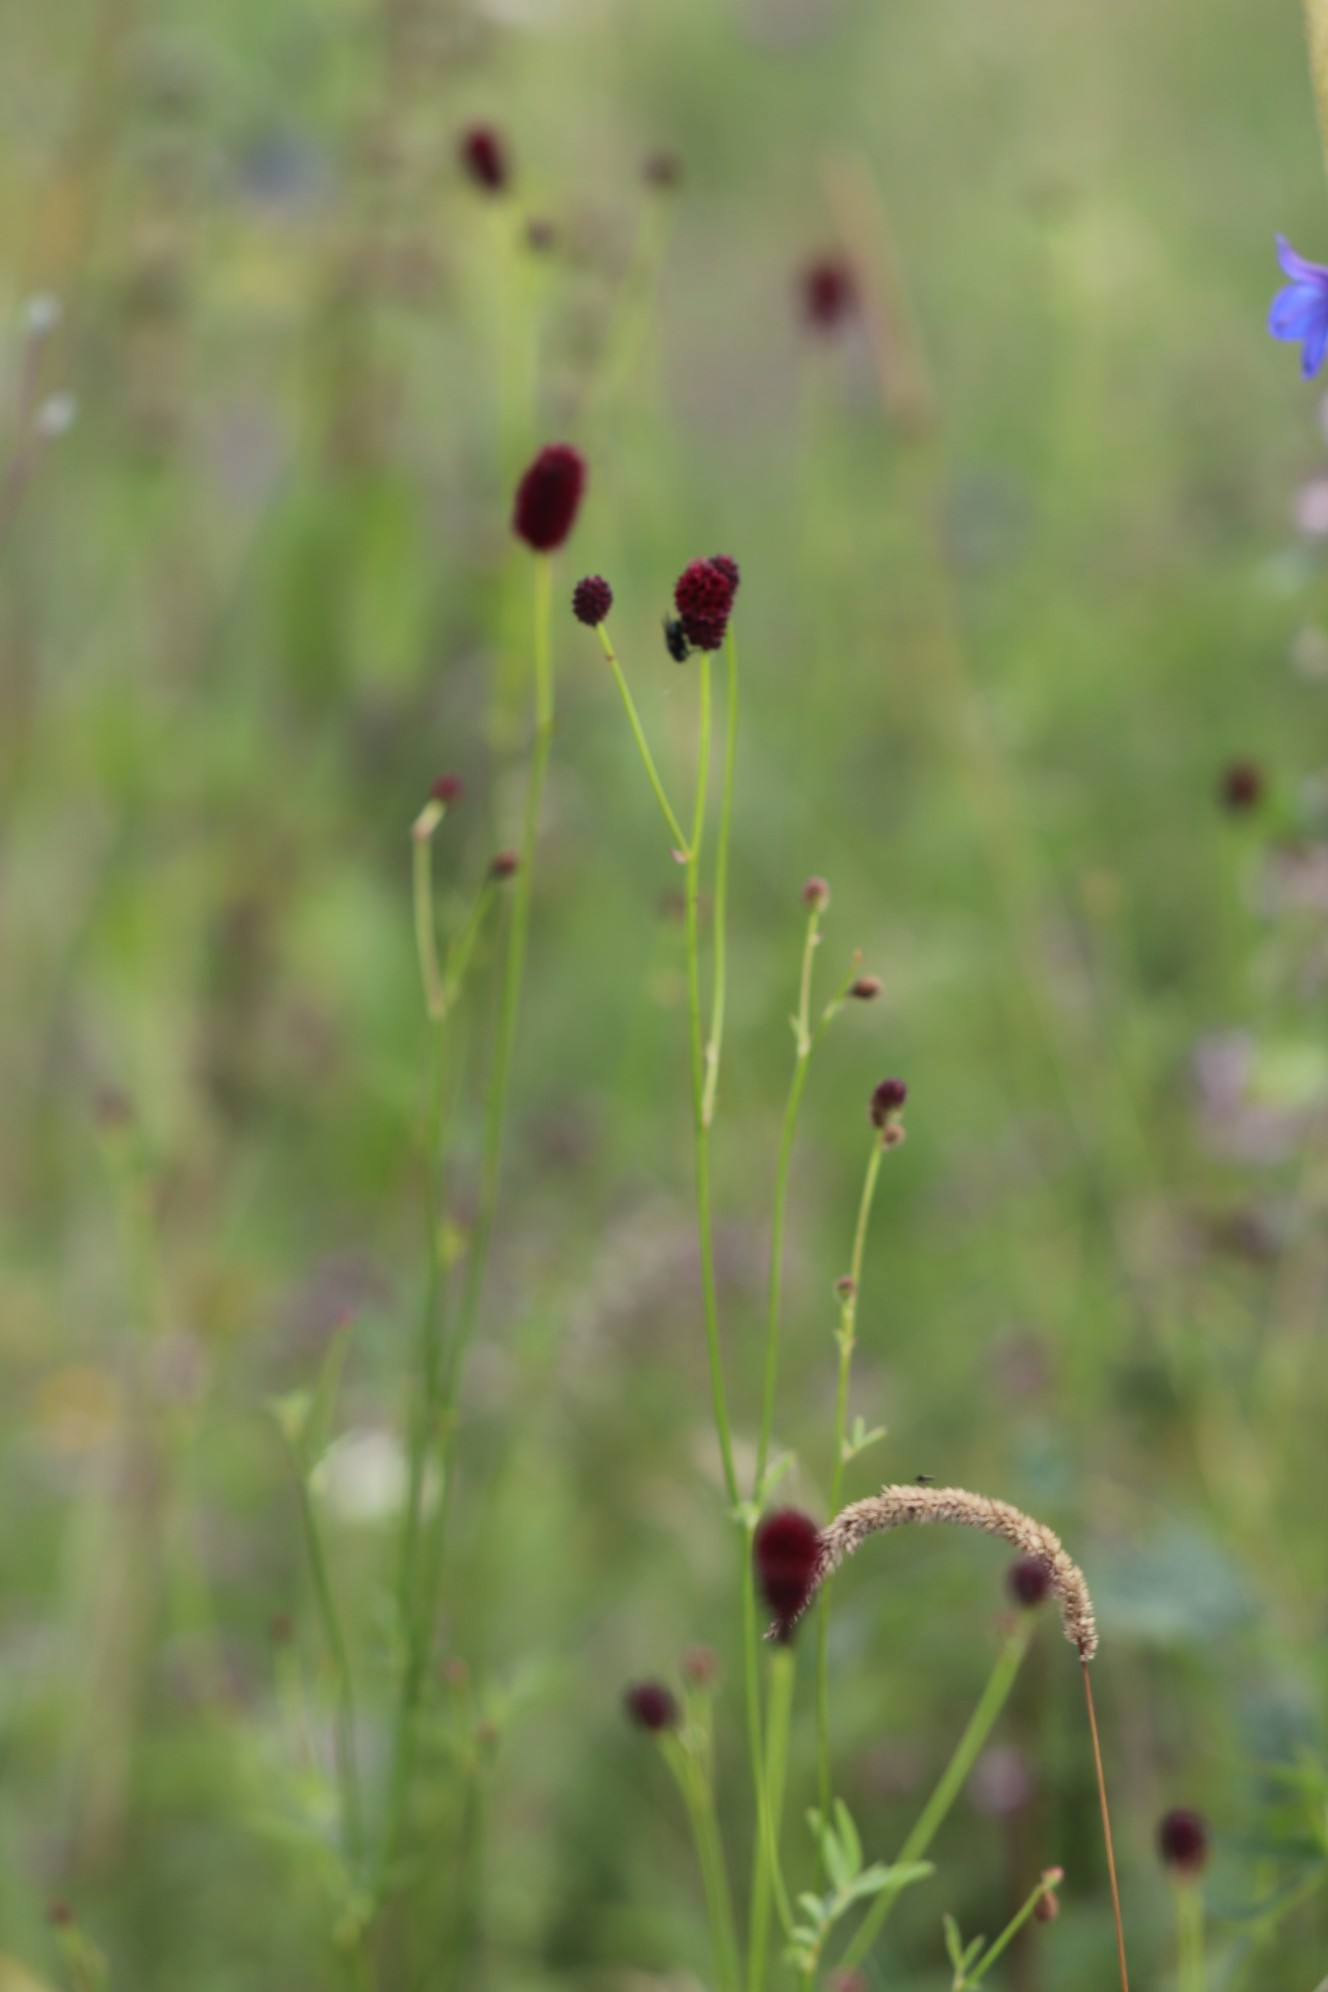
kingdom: Plantae
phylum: Tracheophyta
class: Magnoliopsida
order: Rosales
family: Rosaceae
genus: Sanguisorba
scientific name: Sanguisorba officinalis
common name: Great burnet
